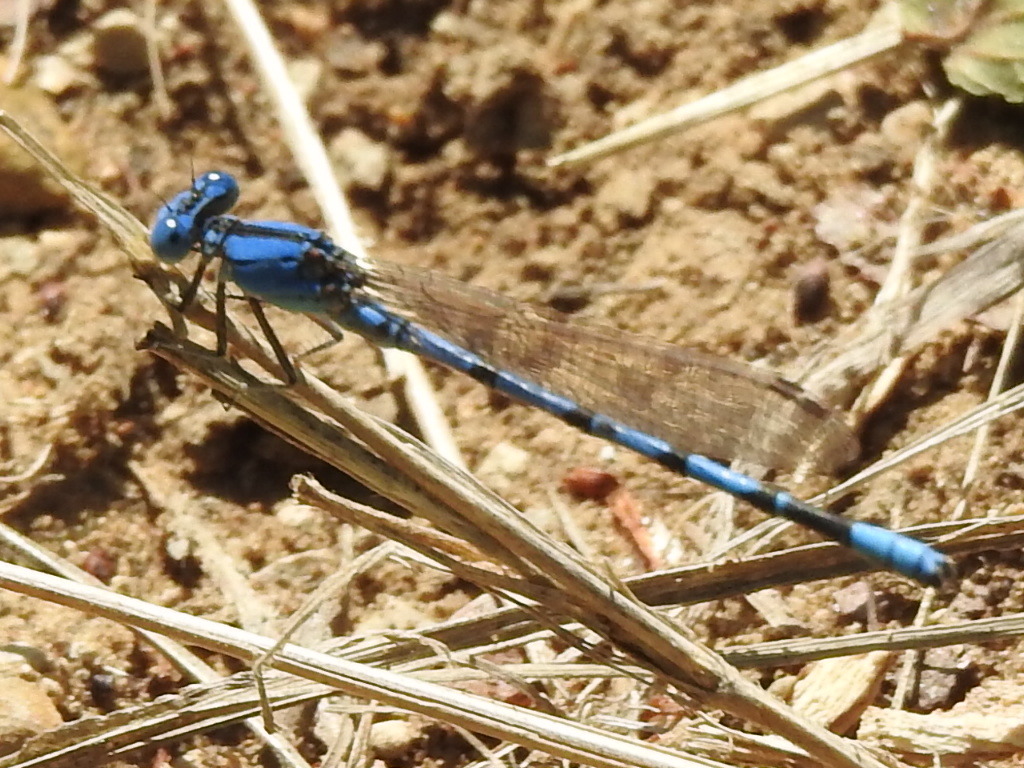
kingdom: Animalia
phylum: Arthropoda
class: Insecta
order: Odonata
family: Coenagrionidae
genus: Argia
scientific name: Argia nahuana
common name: Aztec dancer
